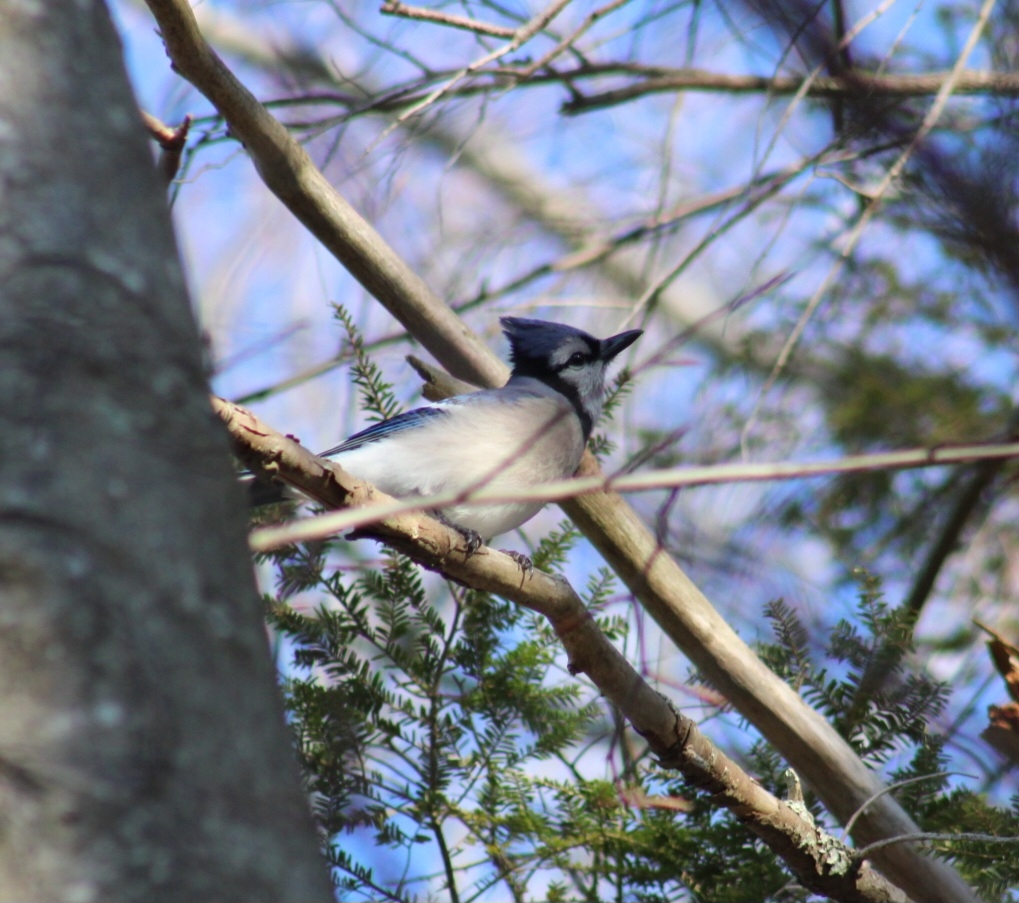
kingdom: Animalia
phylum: Chordata
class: Aves
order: Passeriformes
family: Corvidae
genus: Cyanocitta
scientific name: Cyanocitta cristata
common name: Blue jay
